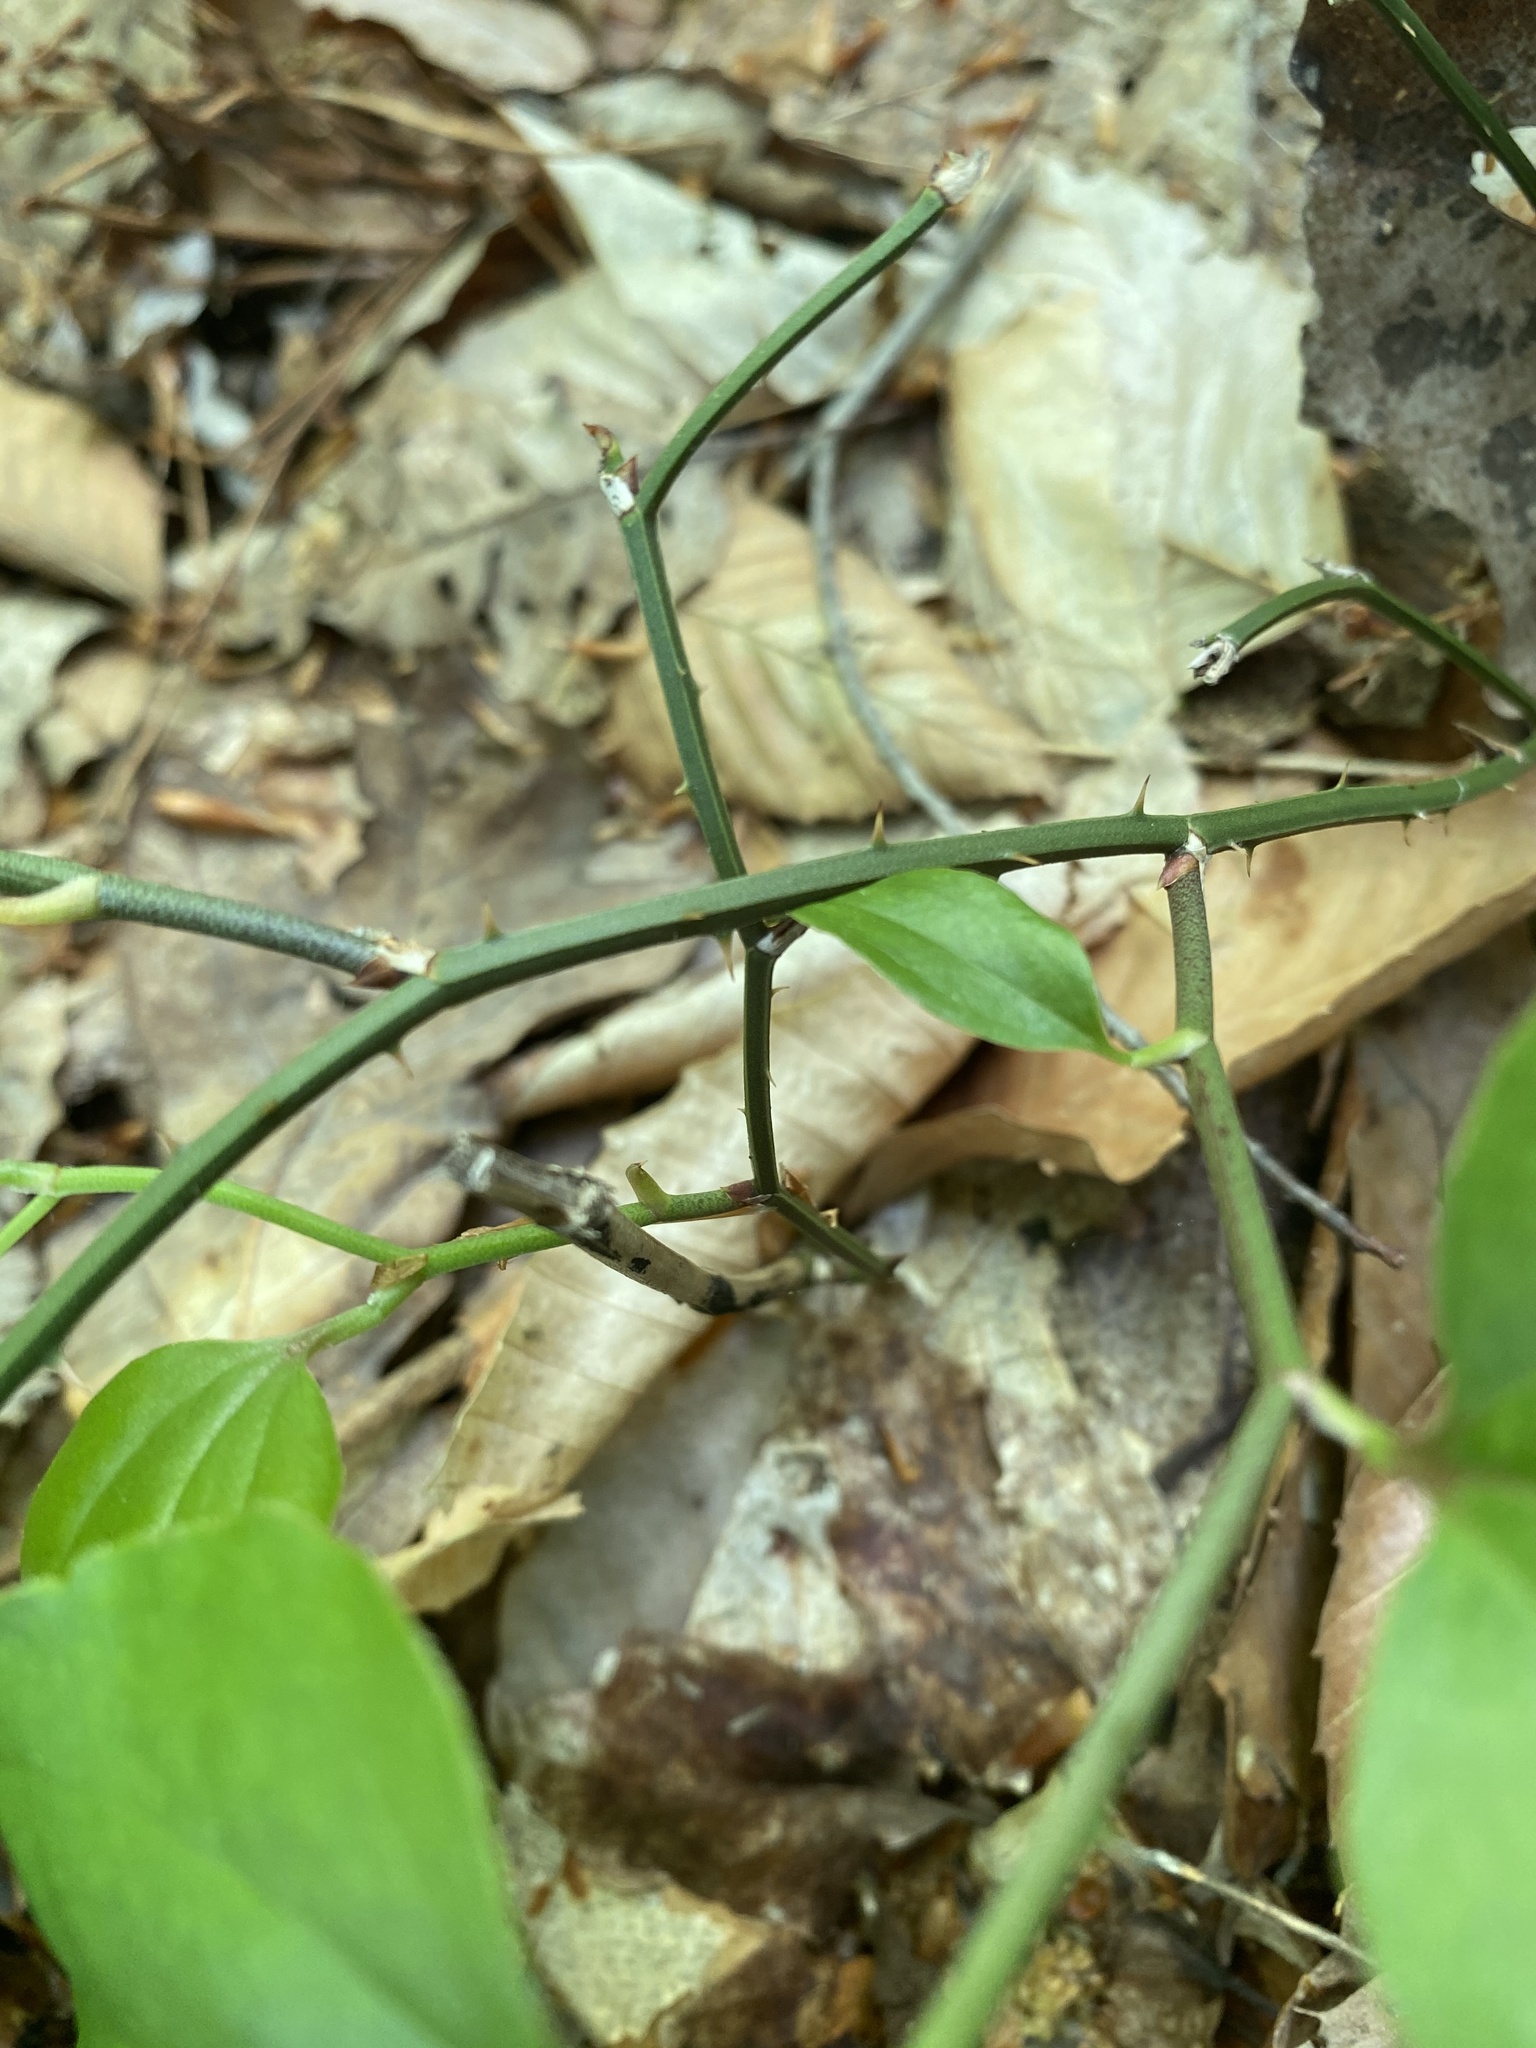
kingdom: Plantae
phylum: Tracheophyta
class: Liliopsida
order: Liliales
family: Smilacaceae
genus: Smilax
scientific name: Smilax rotundifolia
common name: Bullbriar
